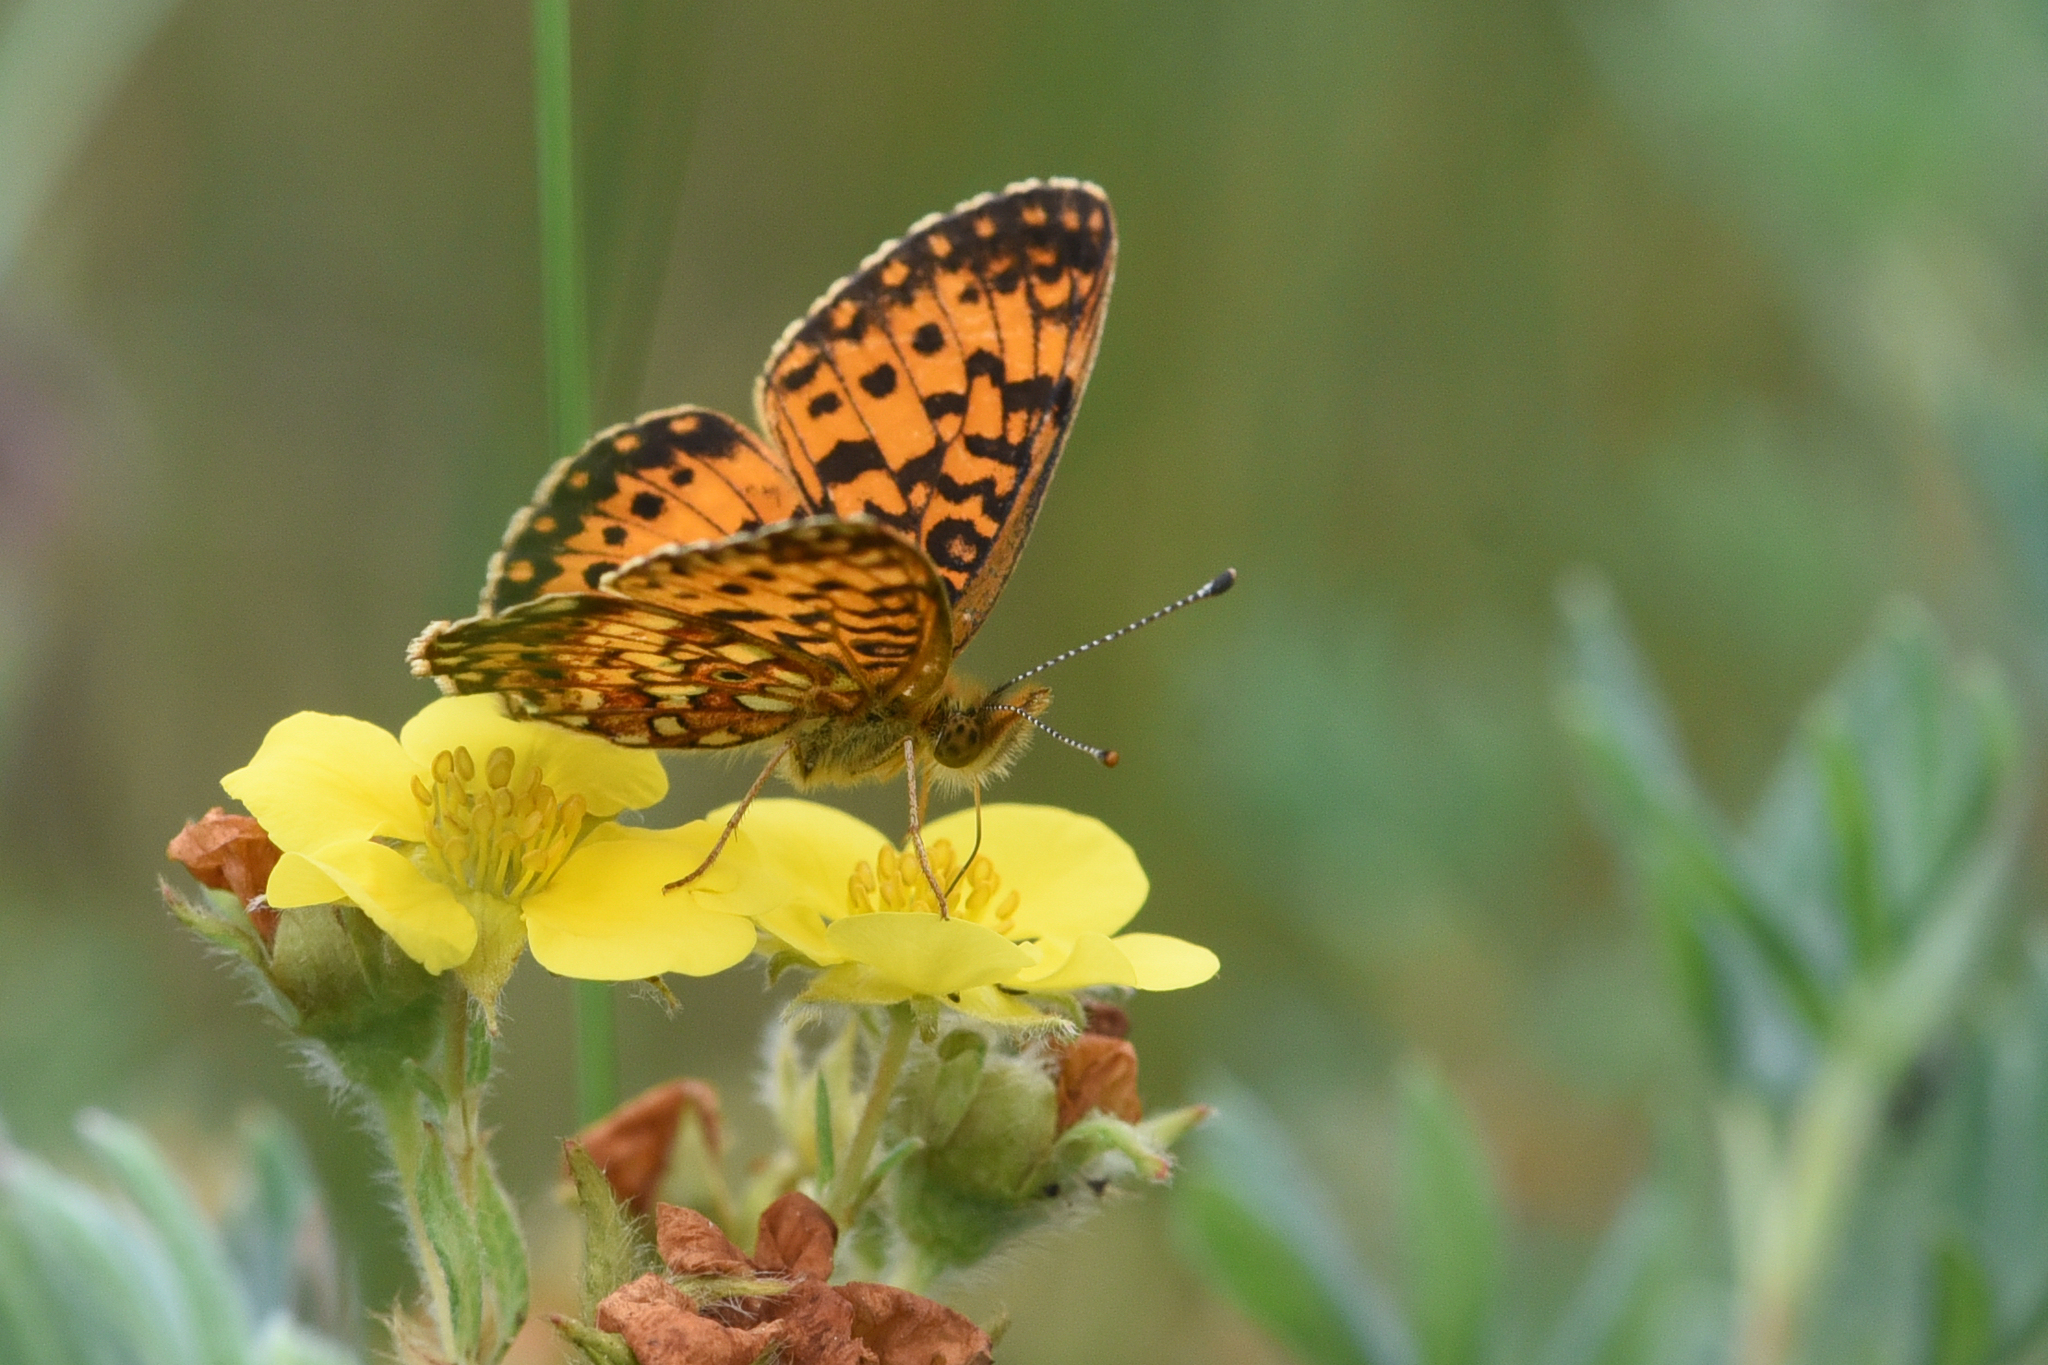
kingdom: Animalia
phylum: Arthropoda
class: Insecta
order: Lepidoptera
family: Nymphalidae
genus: Boloria
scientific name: Boloria
